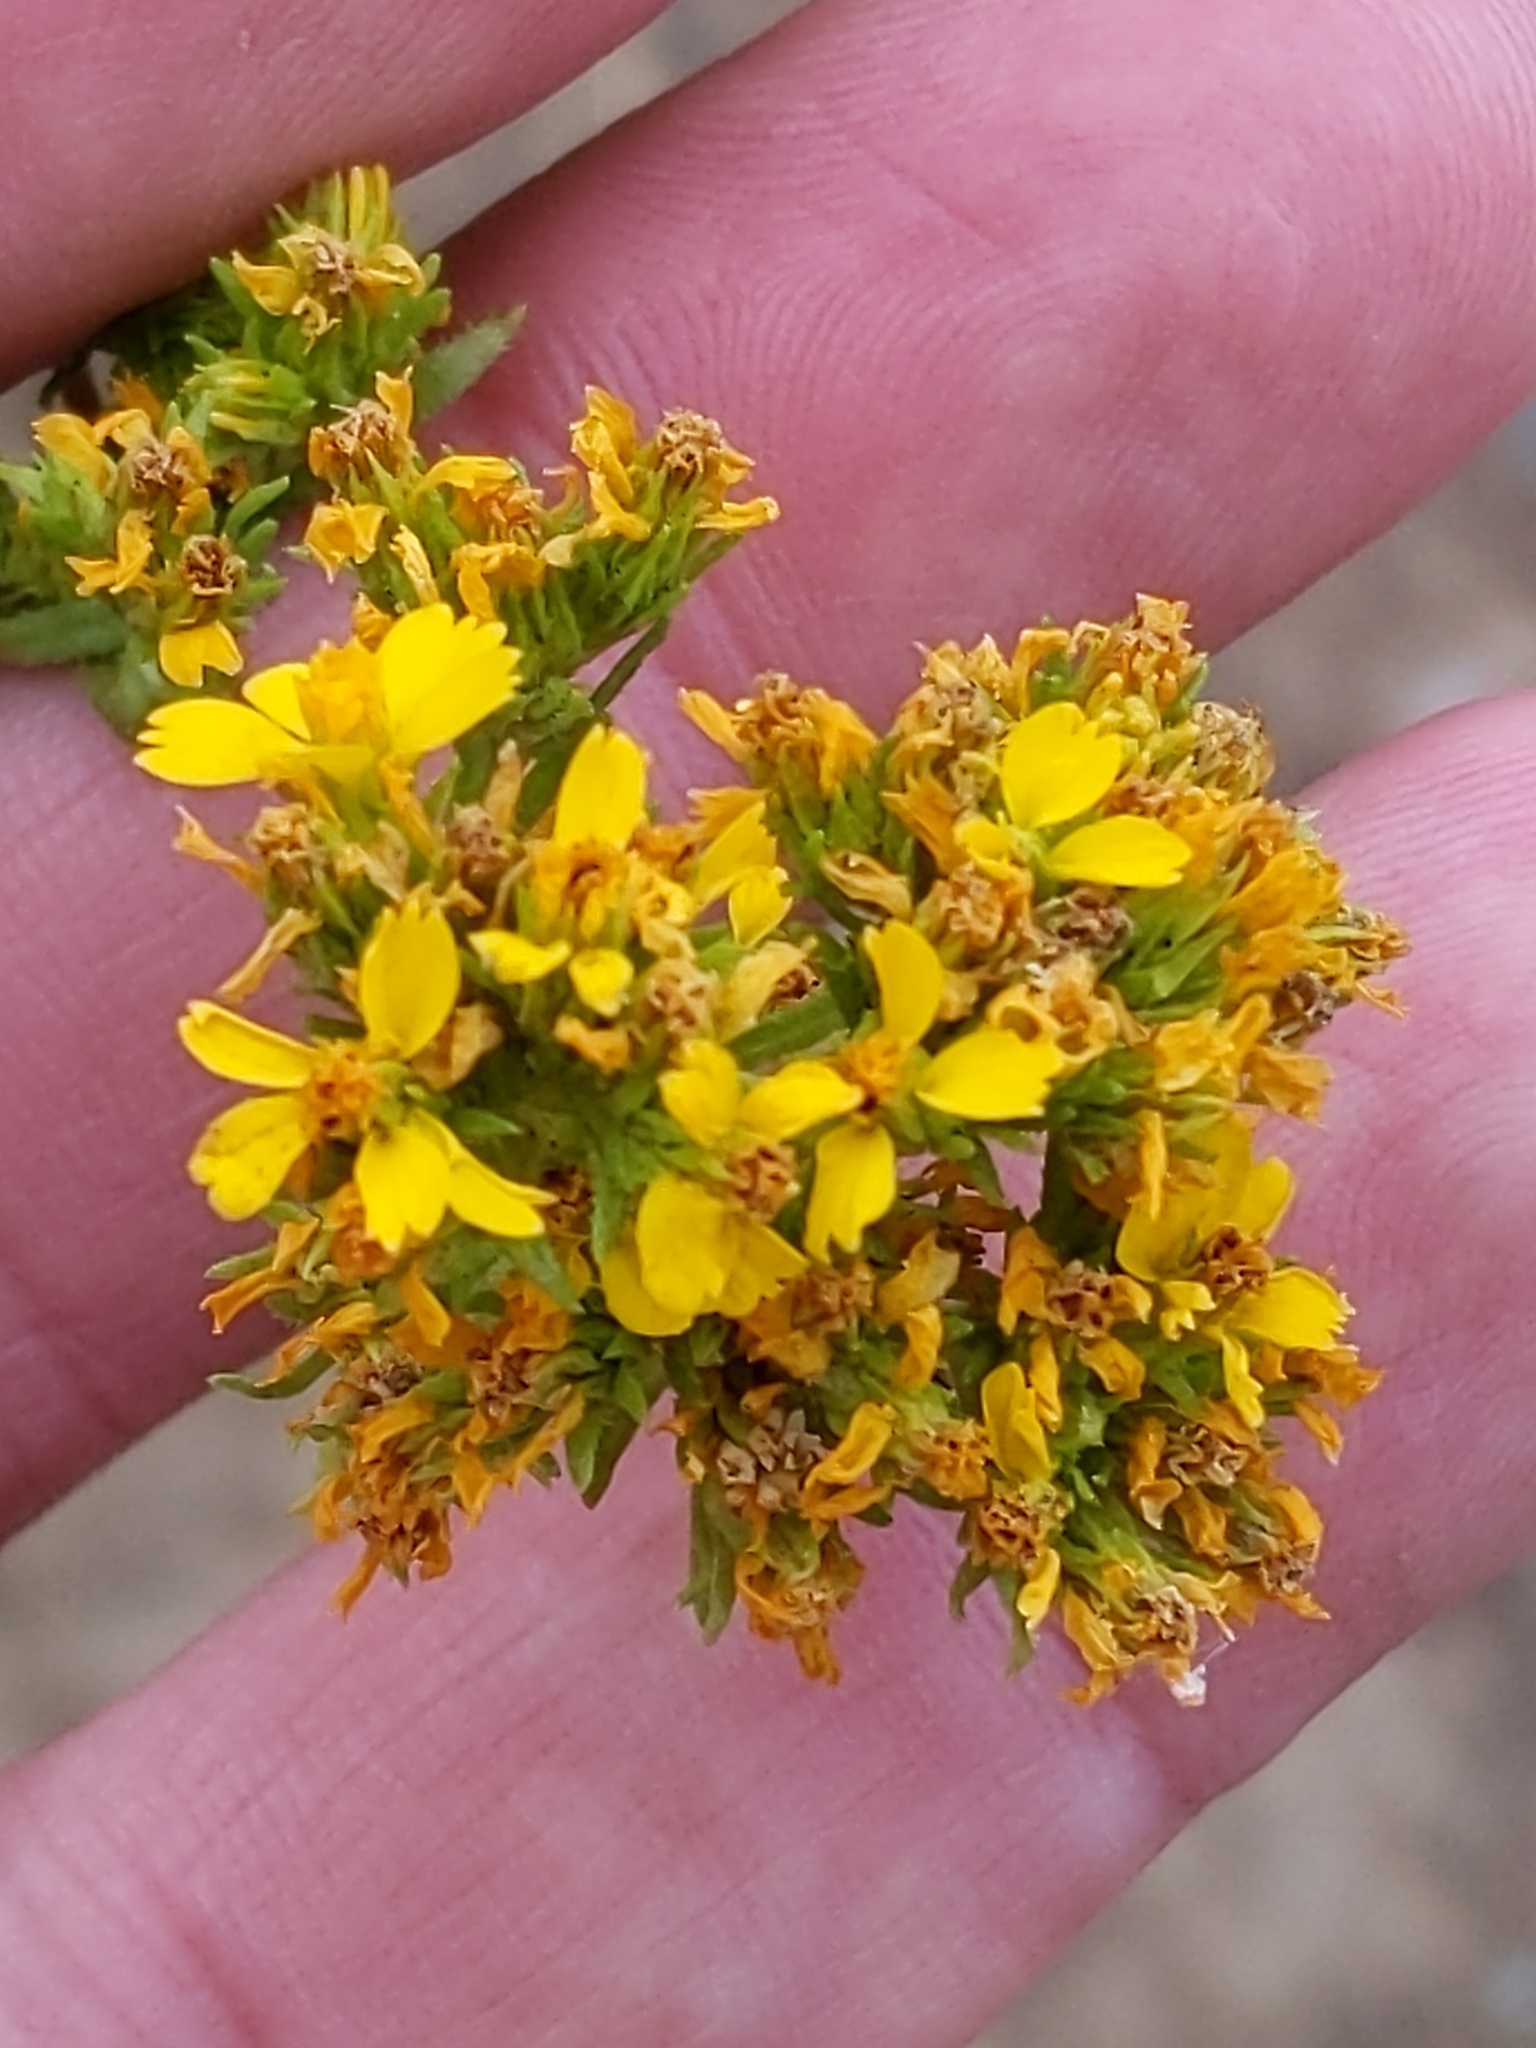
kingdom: Plantae
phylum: Tracheophyta
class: Magnoliopsida
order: Asterales
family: Asteraceae
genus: Deinandra
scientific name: Deinandra fasciculata
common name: Clustered tarweed
